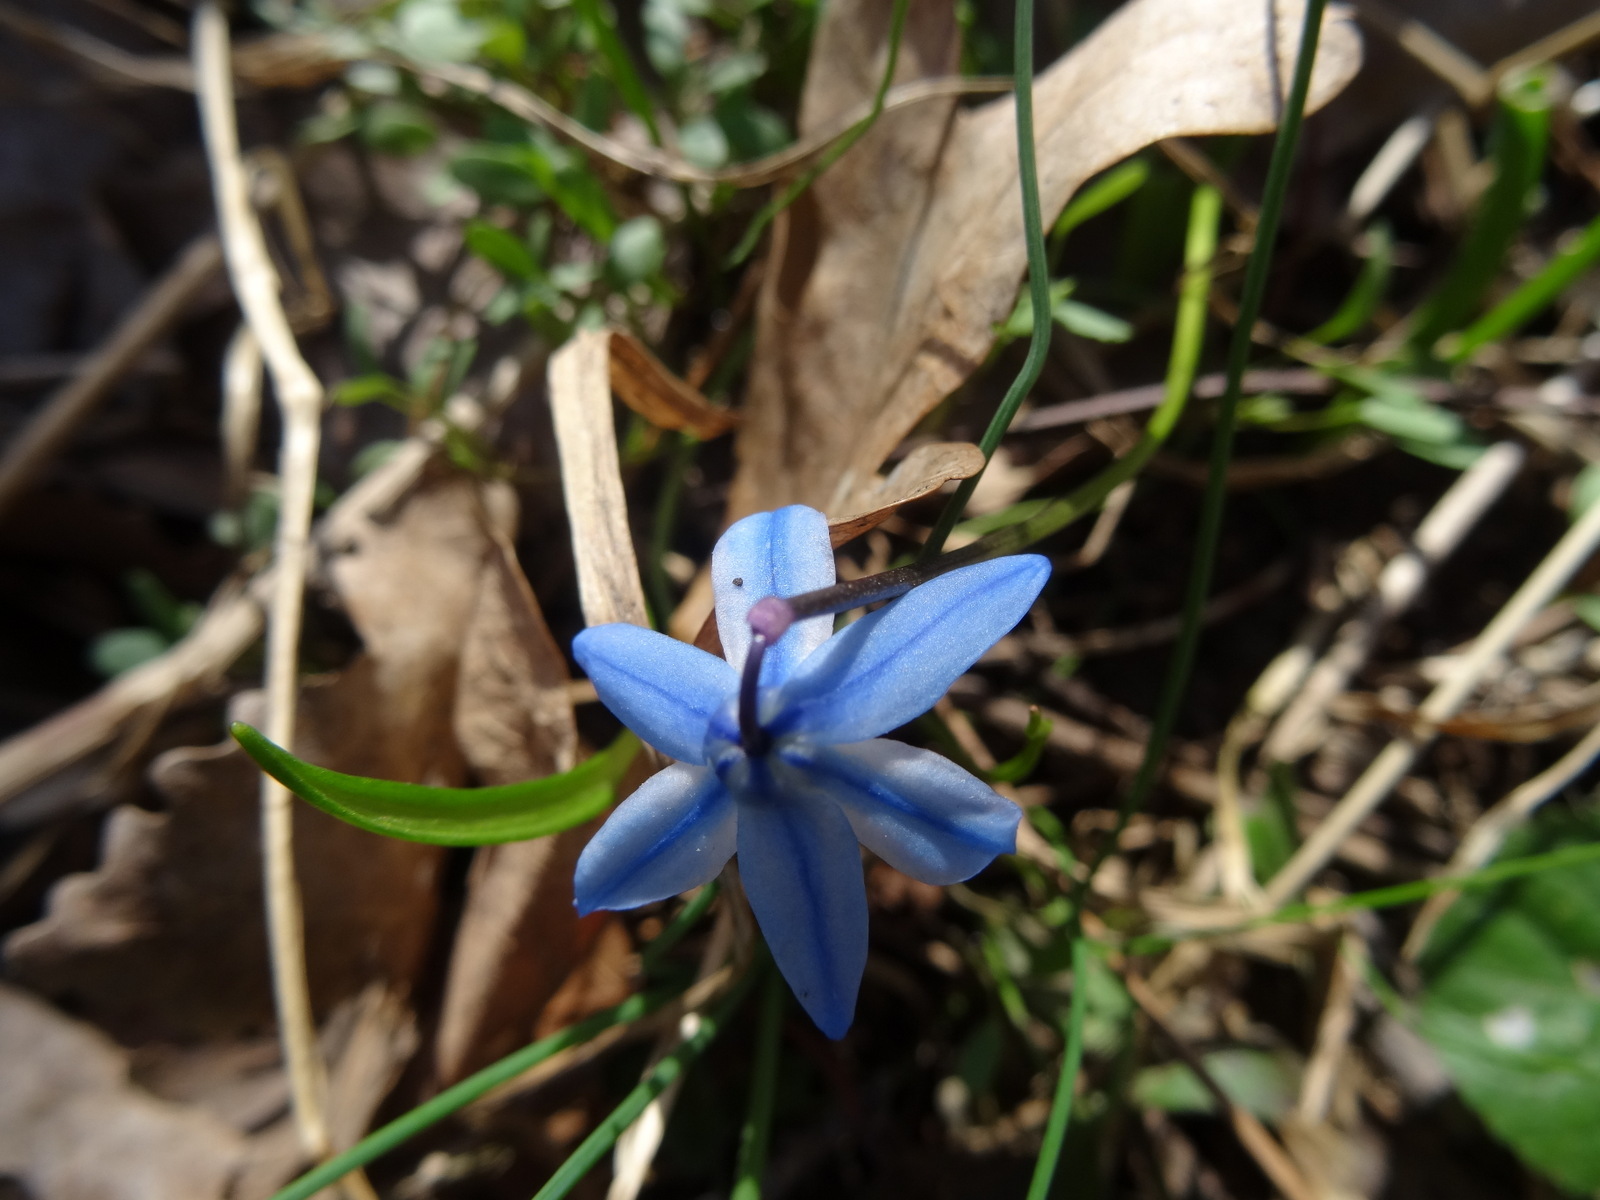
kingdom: Plantae
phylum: Tracheophyta
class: Liliopsida
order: Asparagales
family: Asparagaceae
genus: Scilla
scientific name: Scilla siberica
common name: Siberian squill
